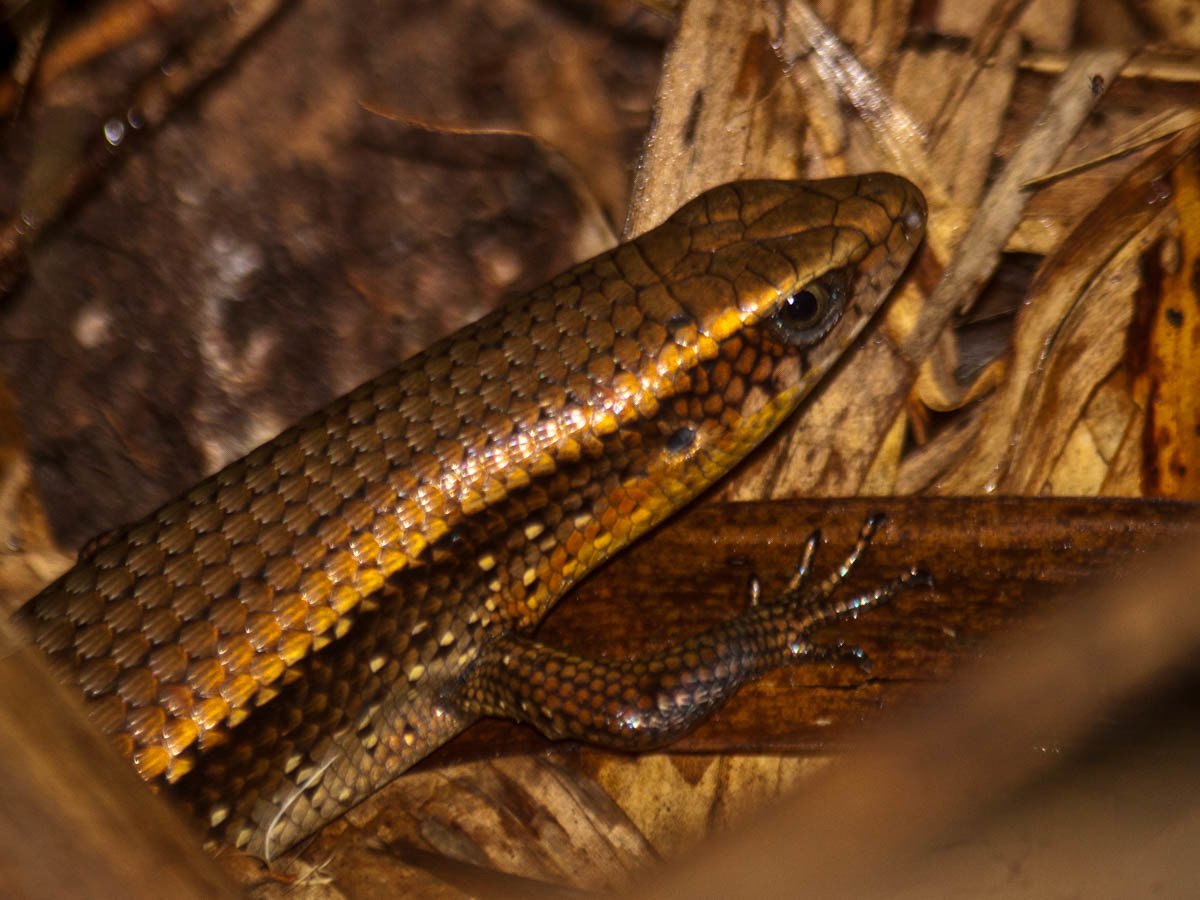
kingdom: Animalia
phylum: Chordata
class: Squamata
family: Scincidae
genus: Eutropis
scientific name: Eutropis multifasciata
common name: Common mabuya
